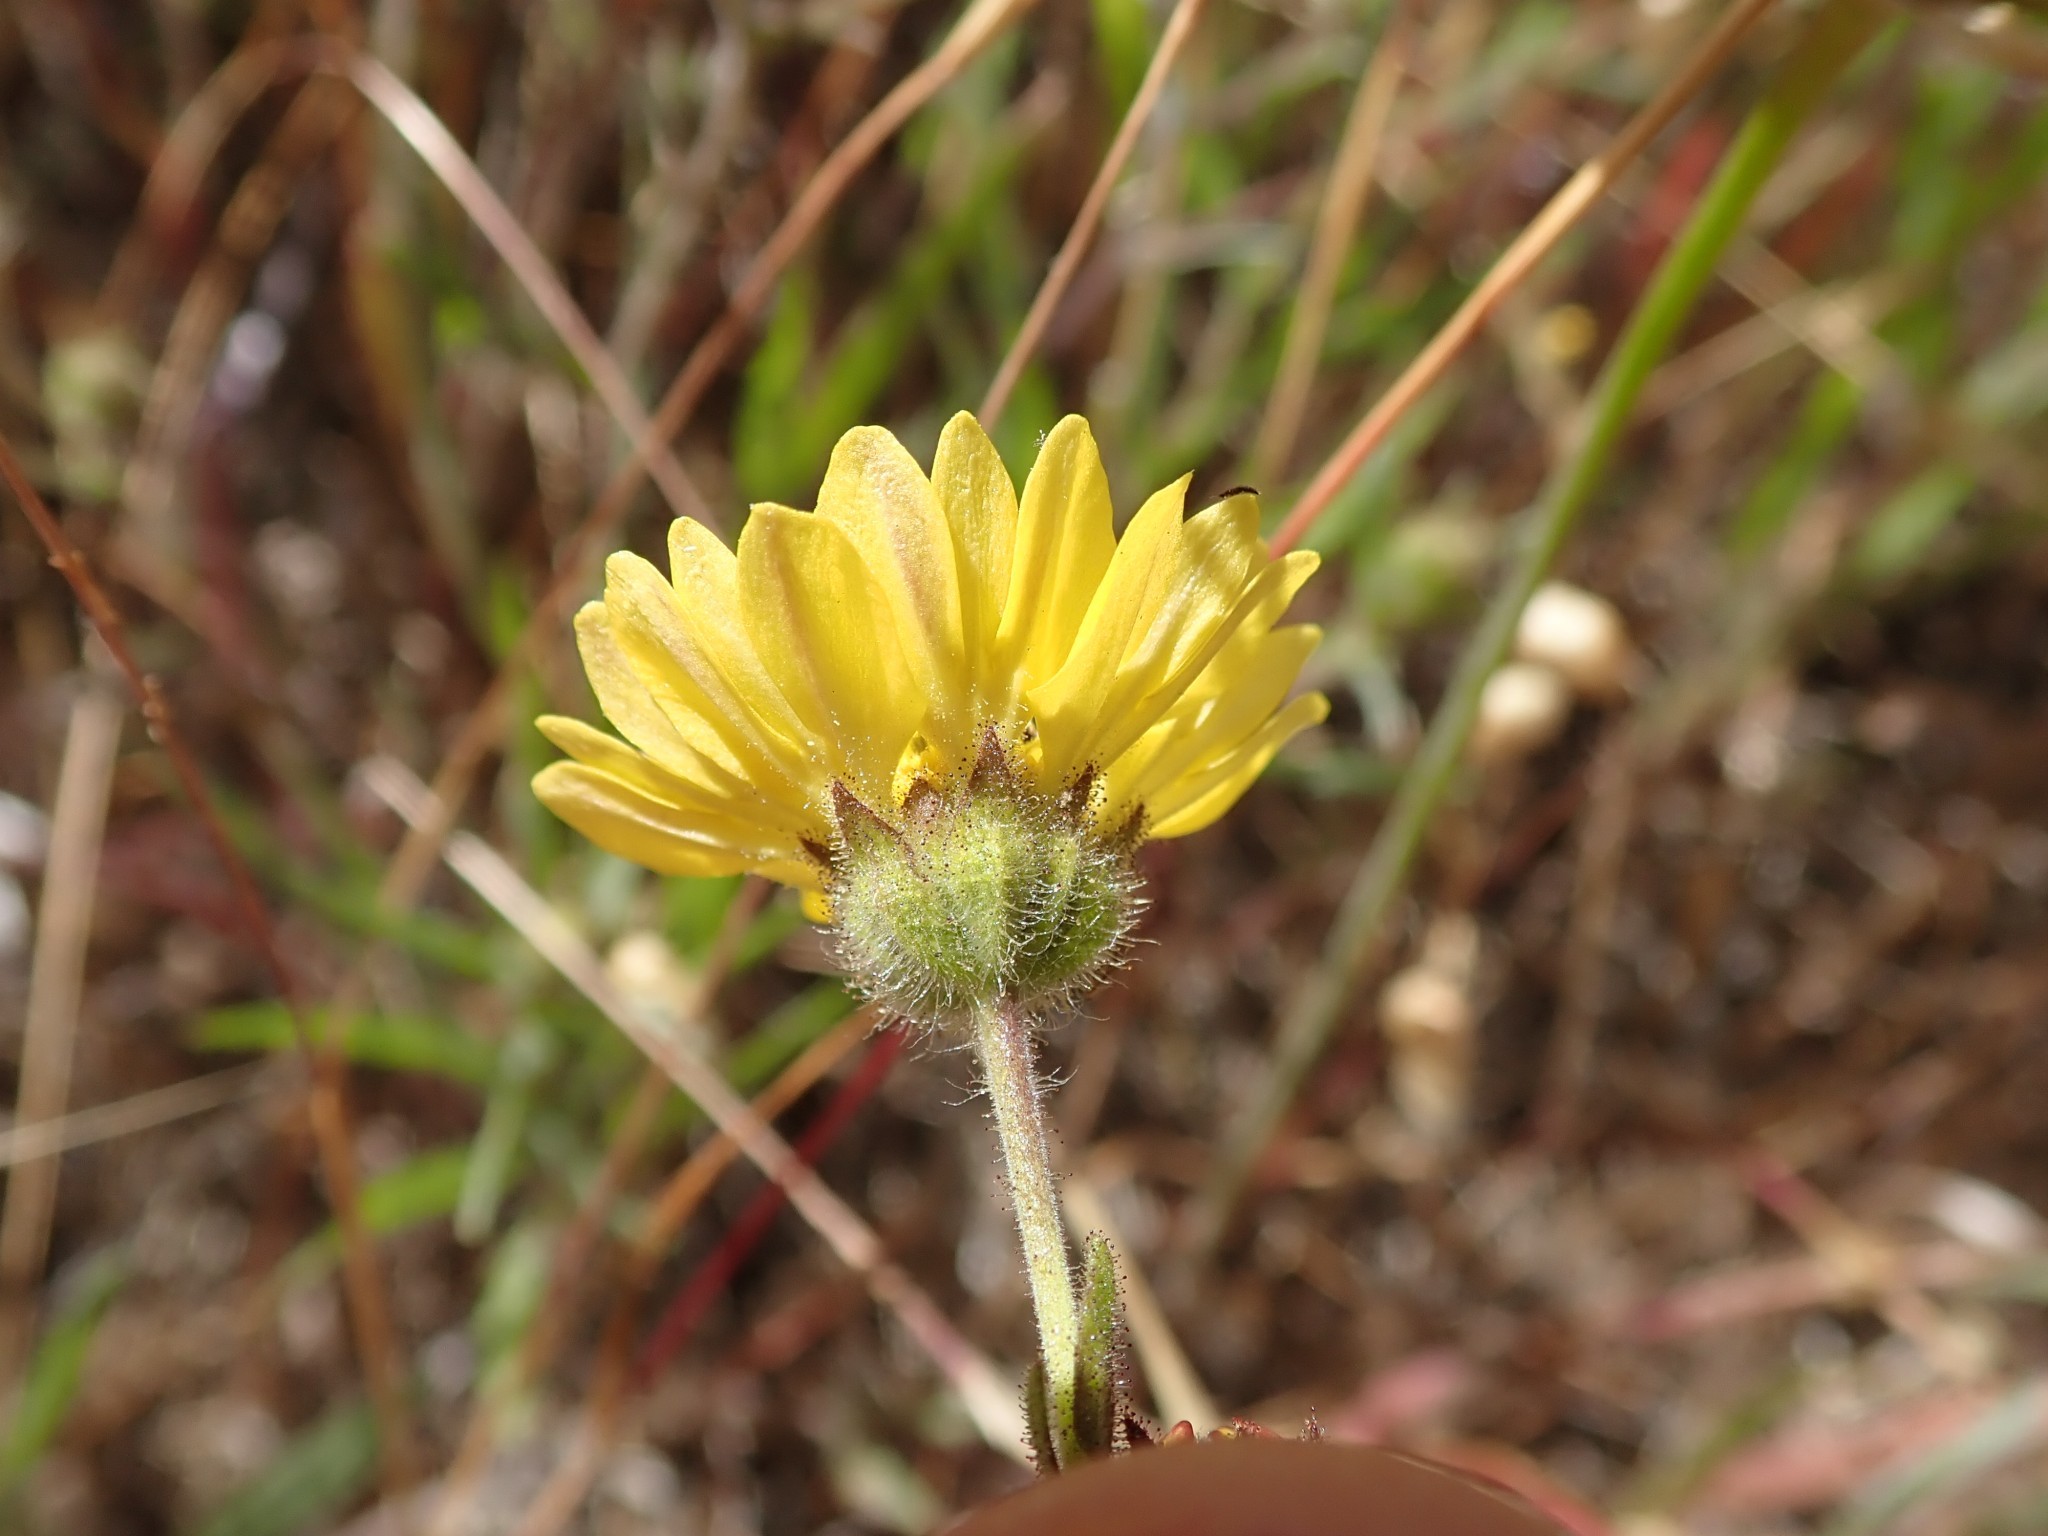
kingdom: Plantae
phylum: Tracheophyta
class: Magnoliopsida
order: Asterales
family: Asteraceae
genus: Hemizonia
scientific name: Hemizonia congesta
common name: Hayfield tarweed
